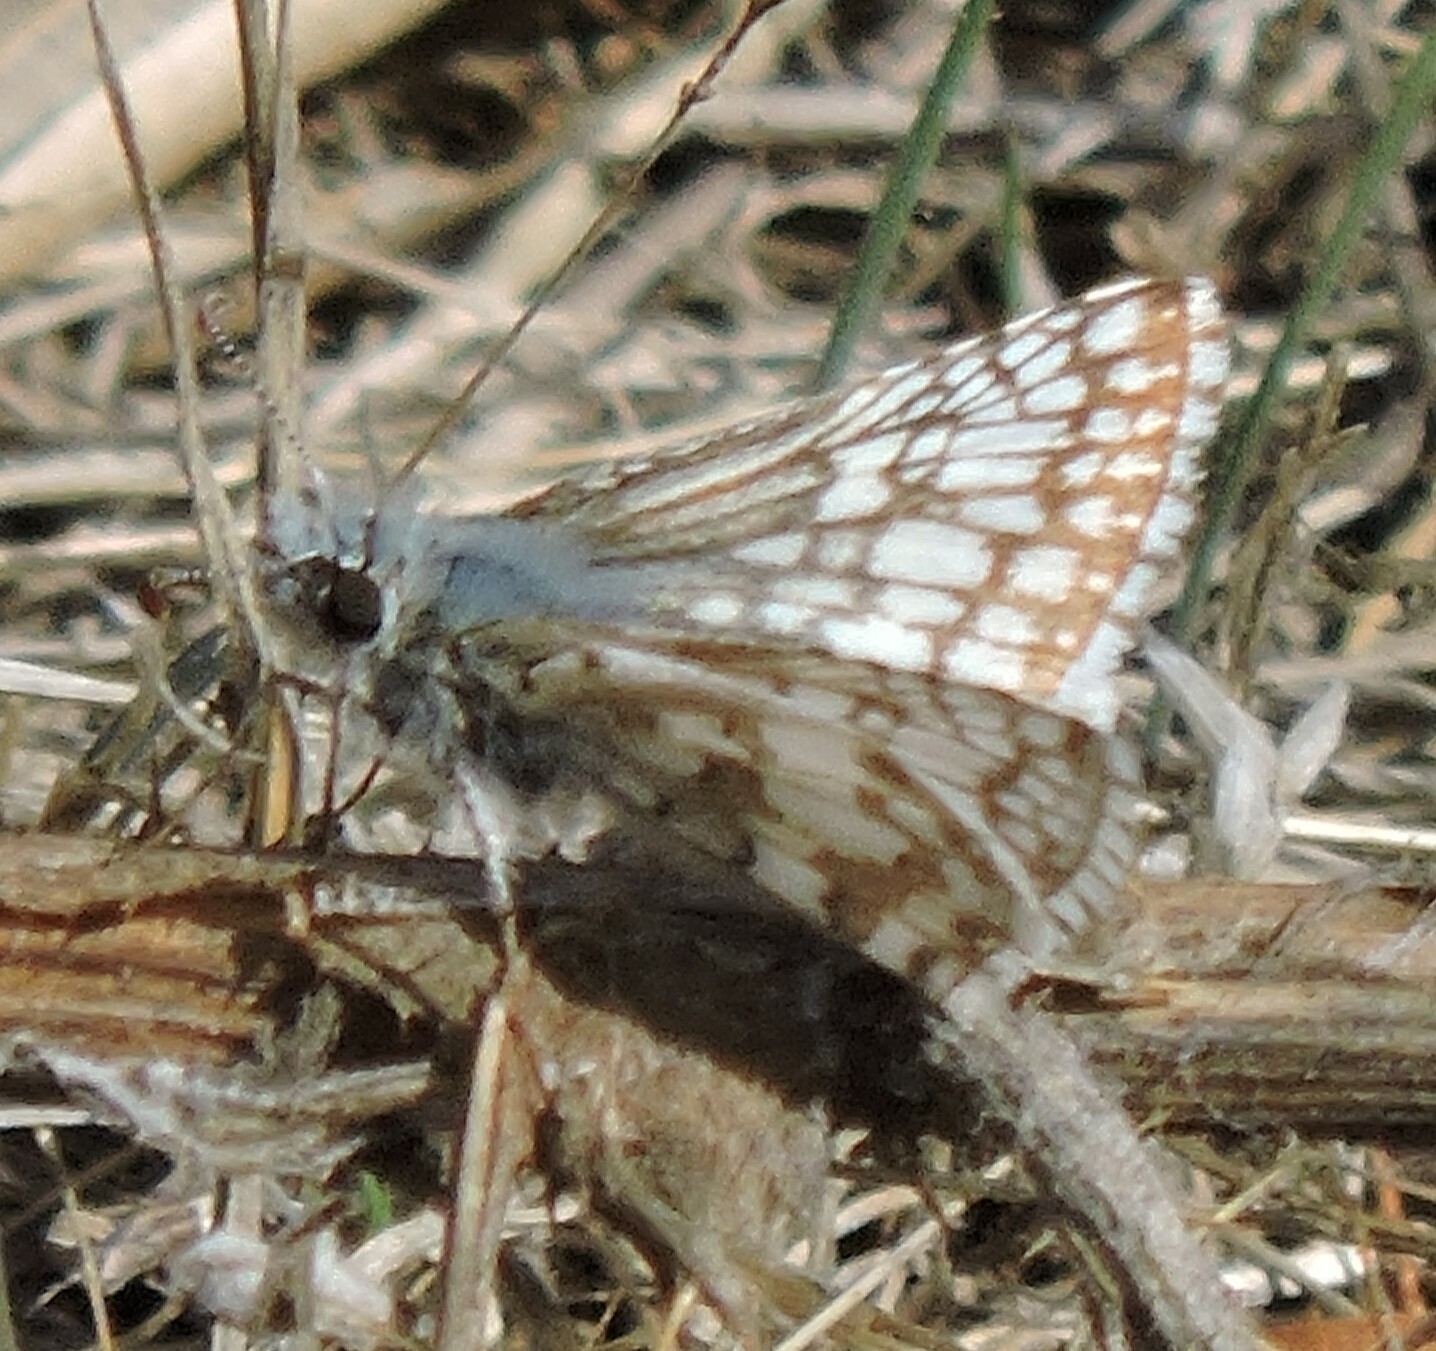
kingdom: Animalia
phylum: Arthropoda
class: Insecta
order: Lepidoptera
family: Hesperiidae
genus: Burnsius
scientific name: Burnsius communis
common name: Common checkered-skipper
